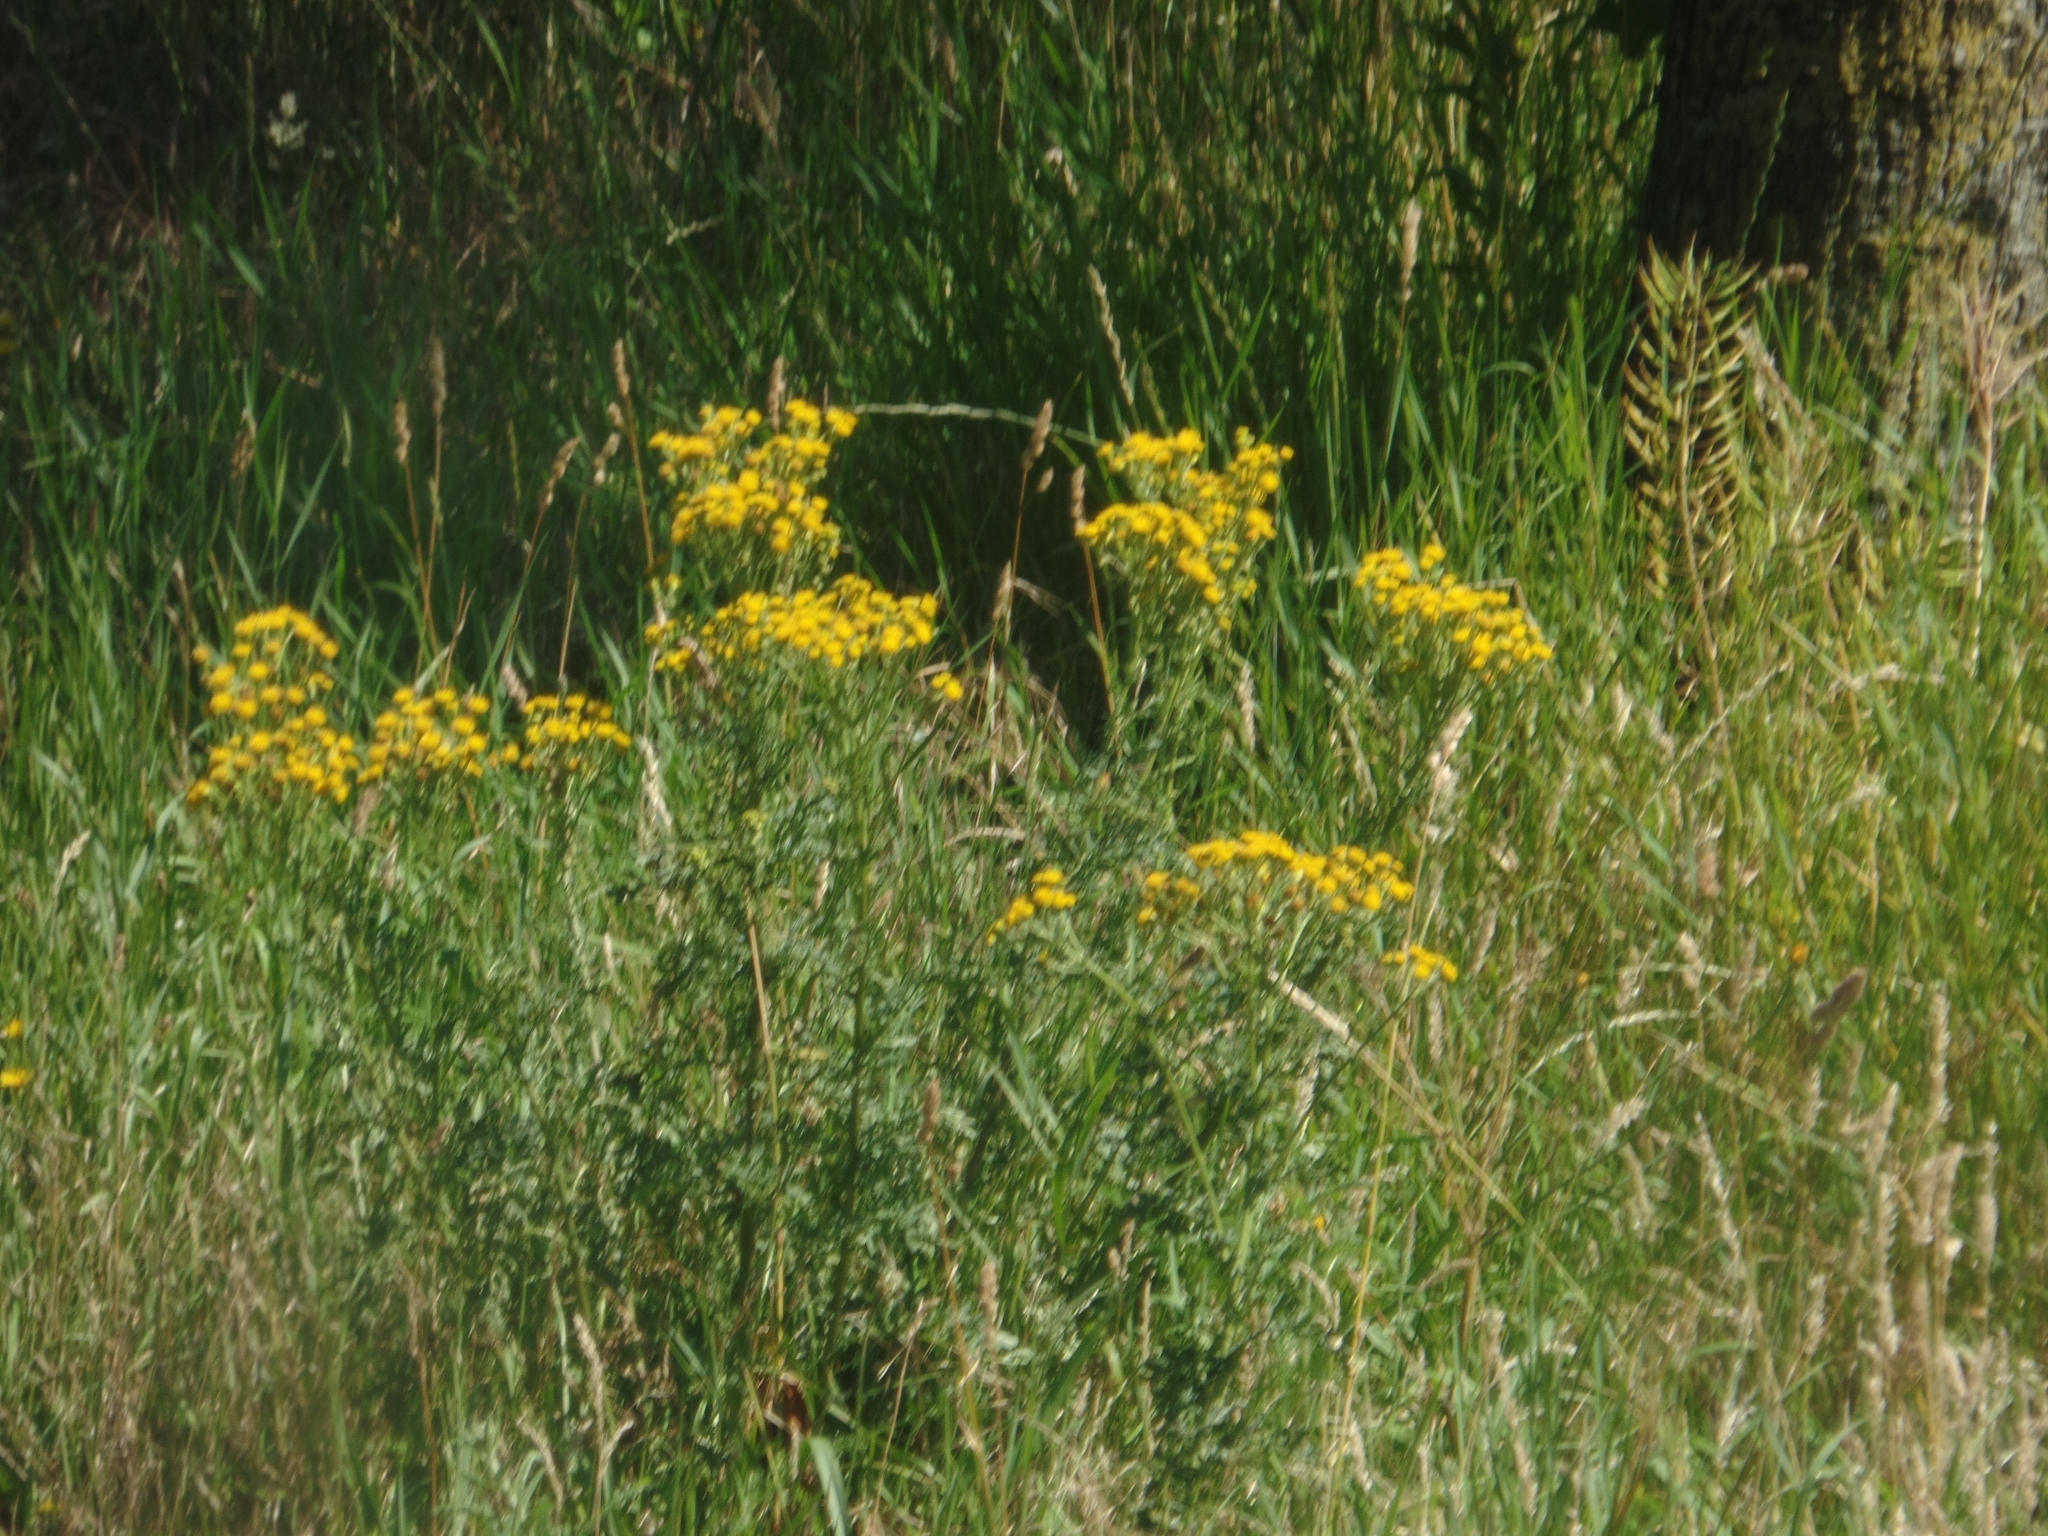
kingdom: Plantae
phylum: Tracheophyta
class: Magnoliopsida
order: Asterales
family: Asteraceae
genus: Tanacetum
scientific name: Tanacetum vulgare
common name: Common tansy
